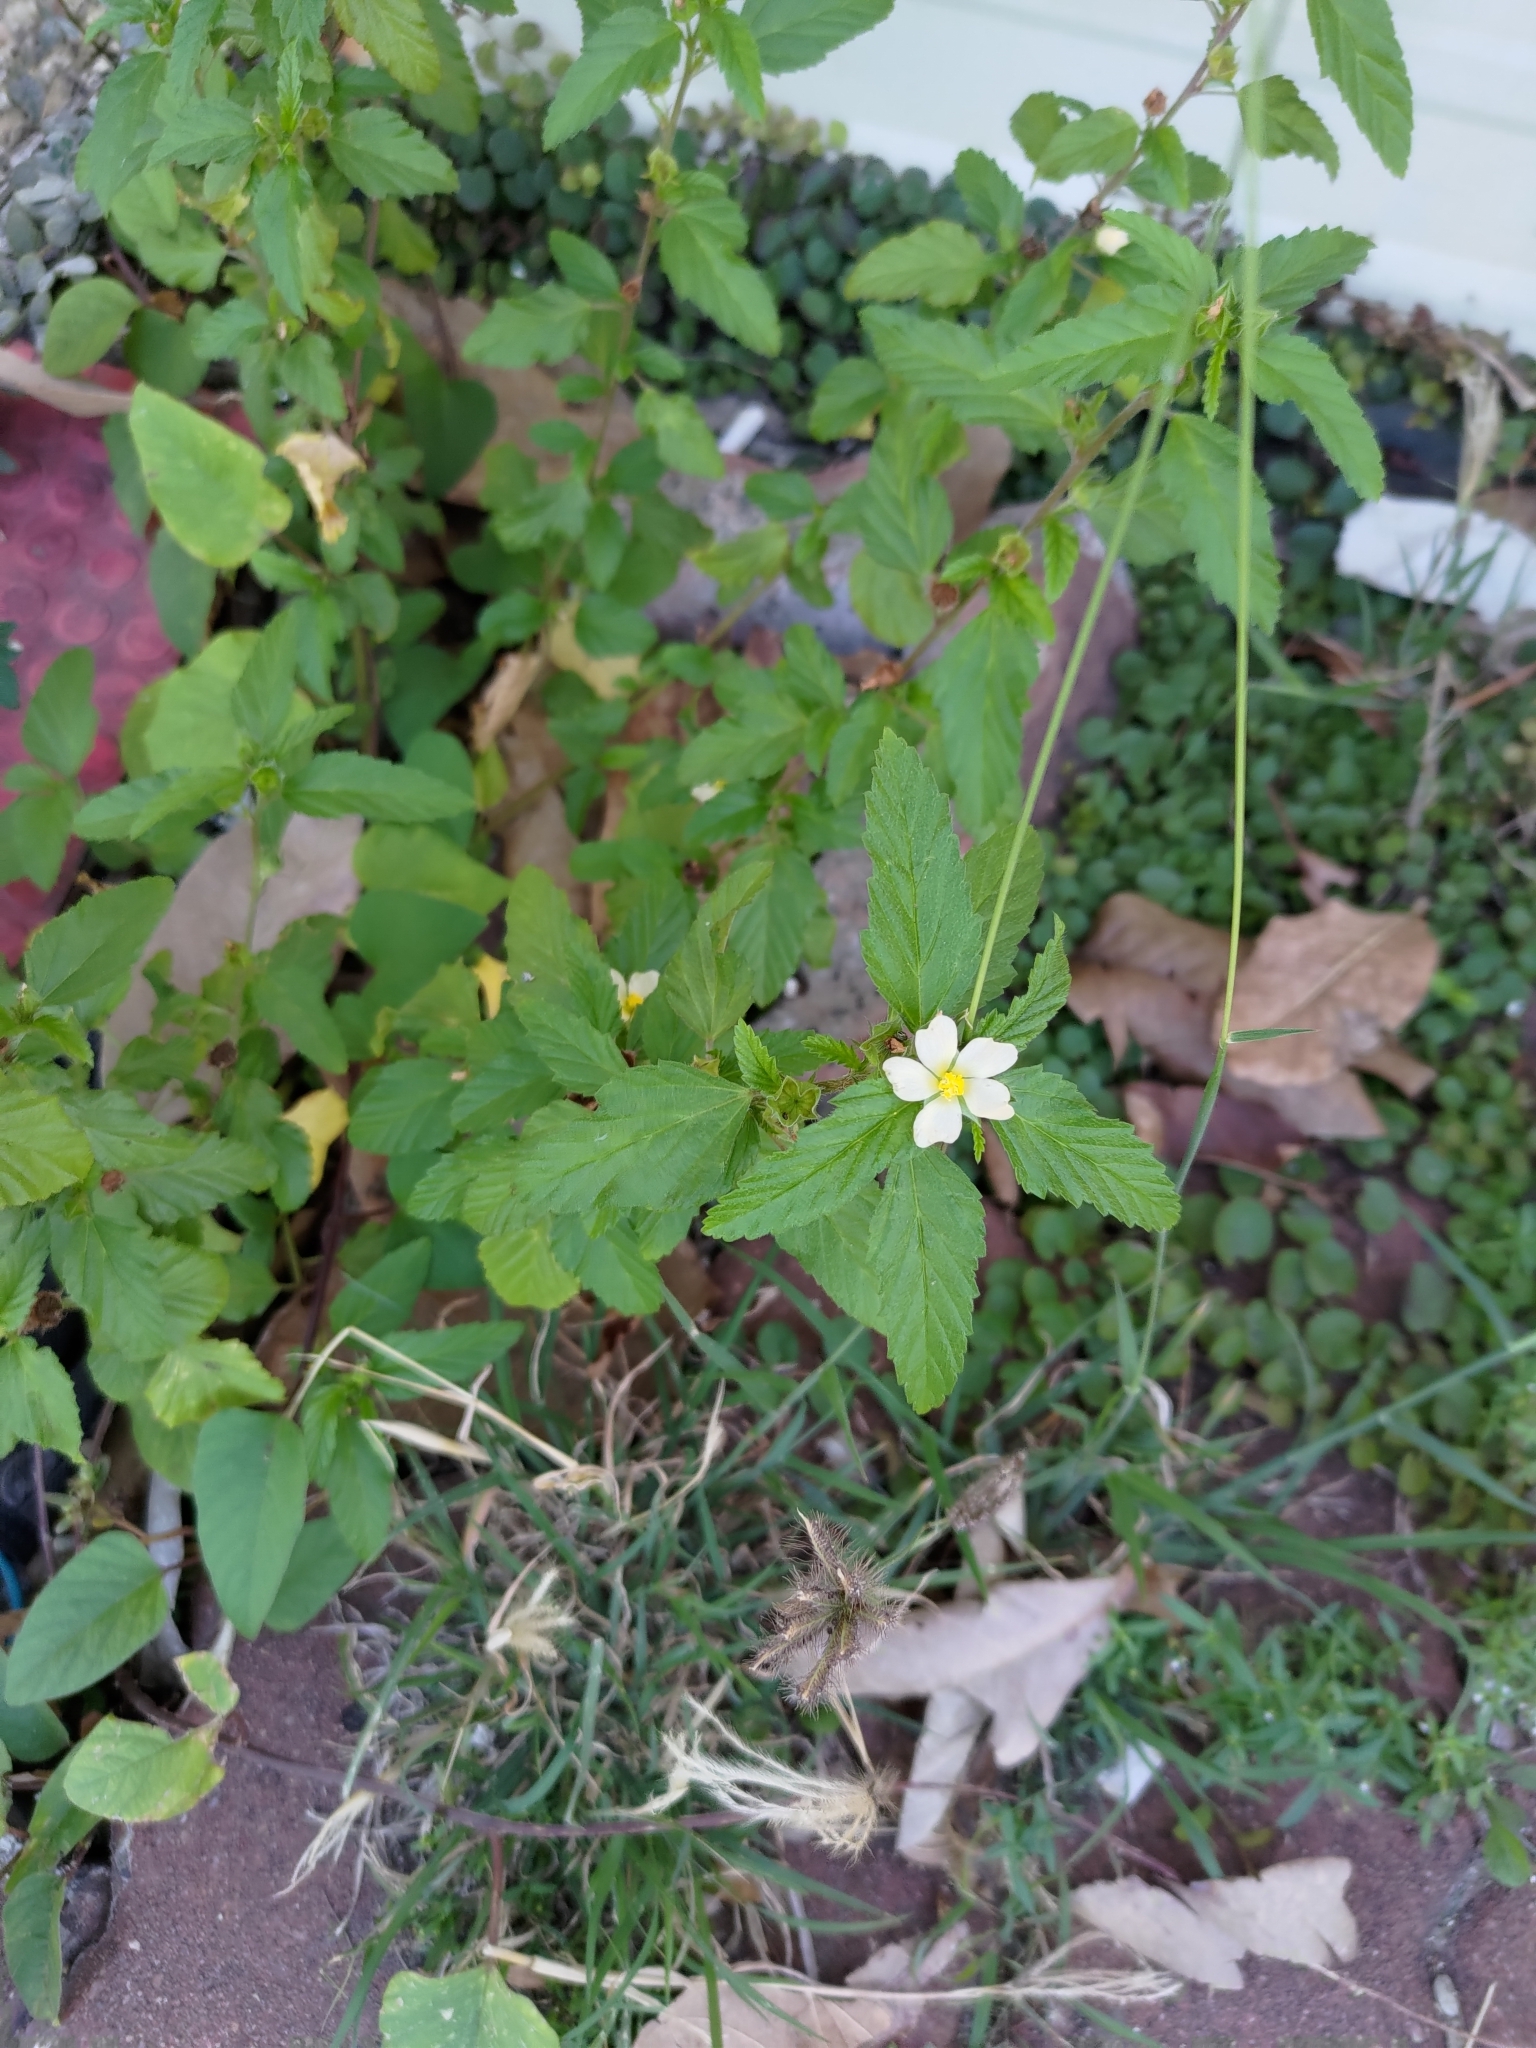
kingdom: Plantae
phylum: Tracheophyta
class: Magnoliopsida
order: Malvales
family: Malvaceae
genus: Malvastrum
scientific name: Malvastrum coromandelianum
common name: Threelobe false mallow
